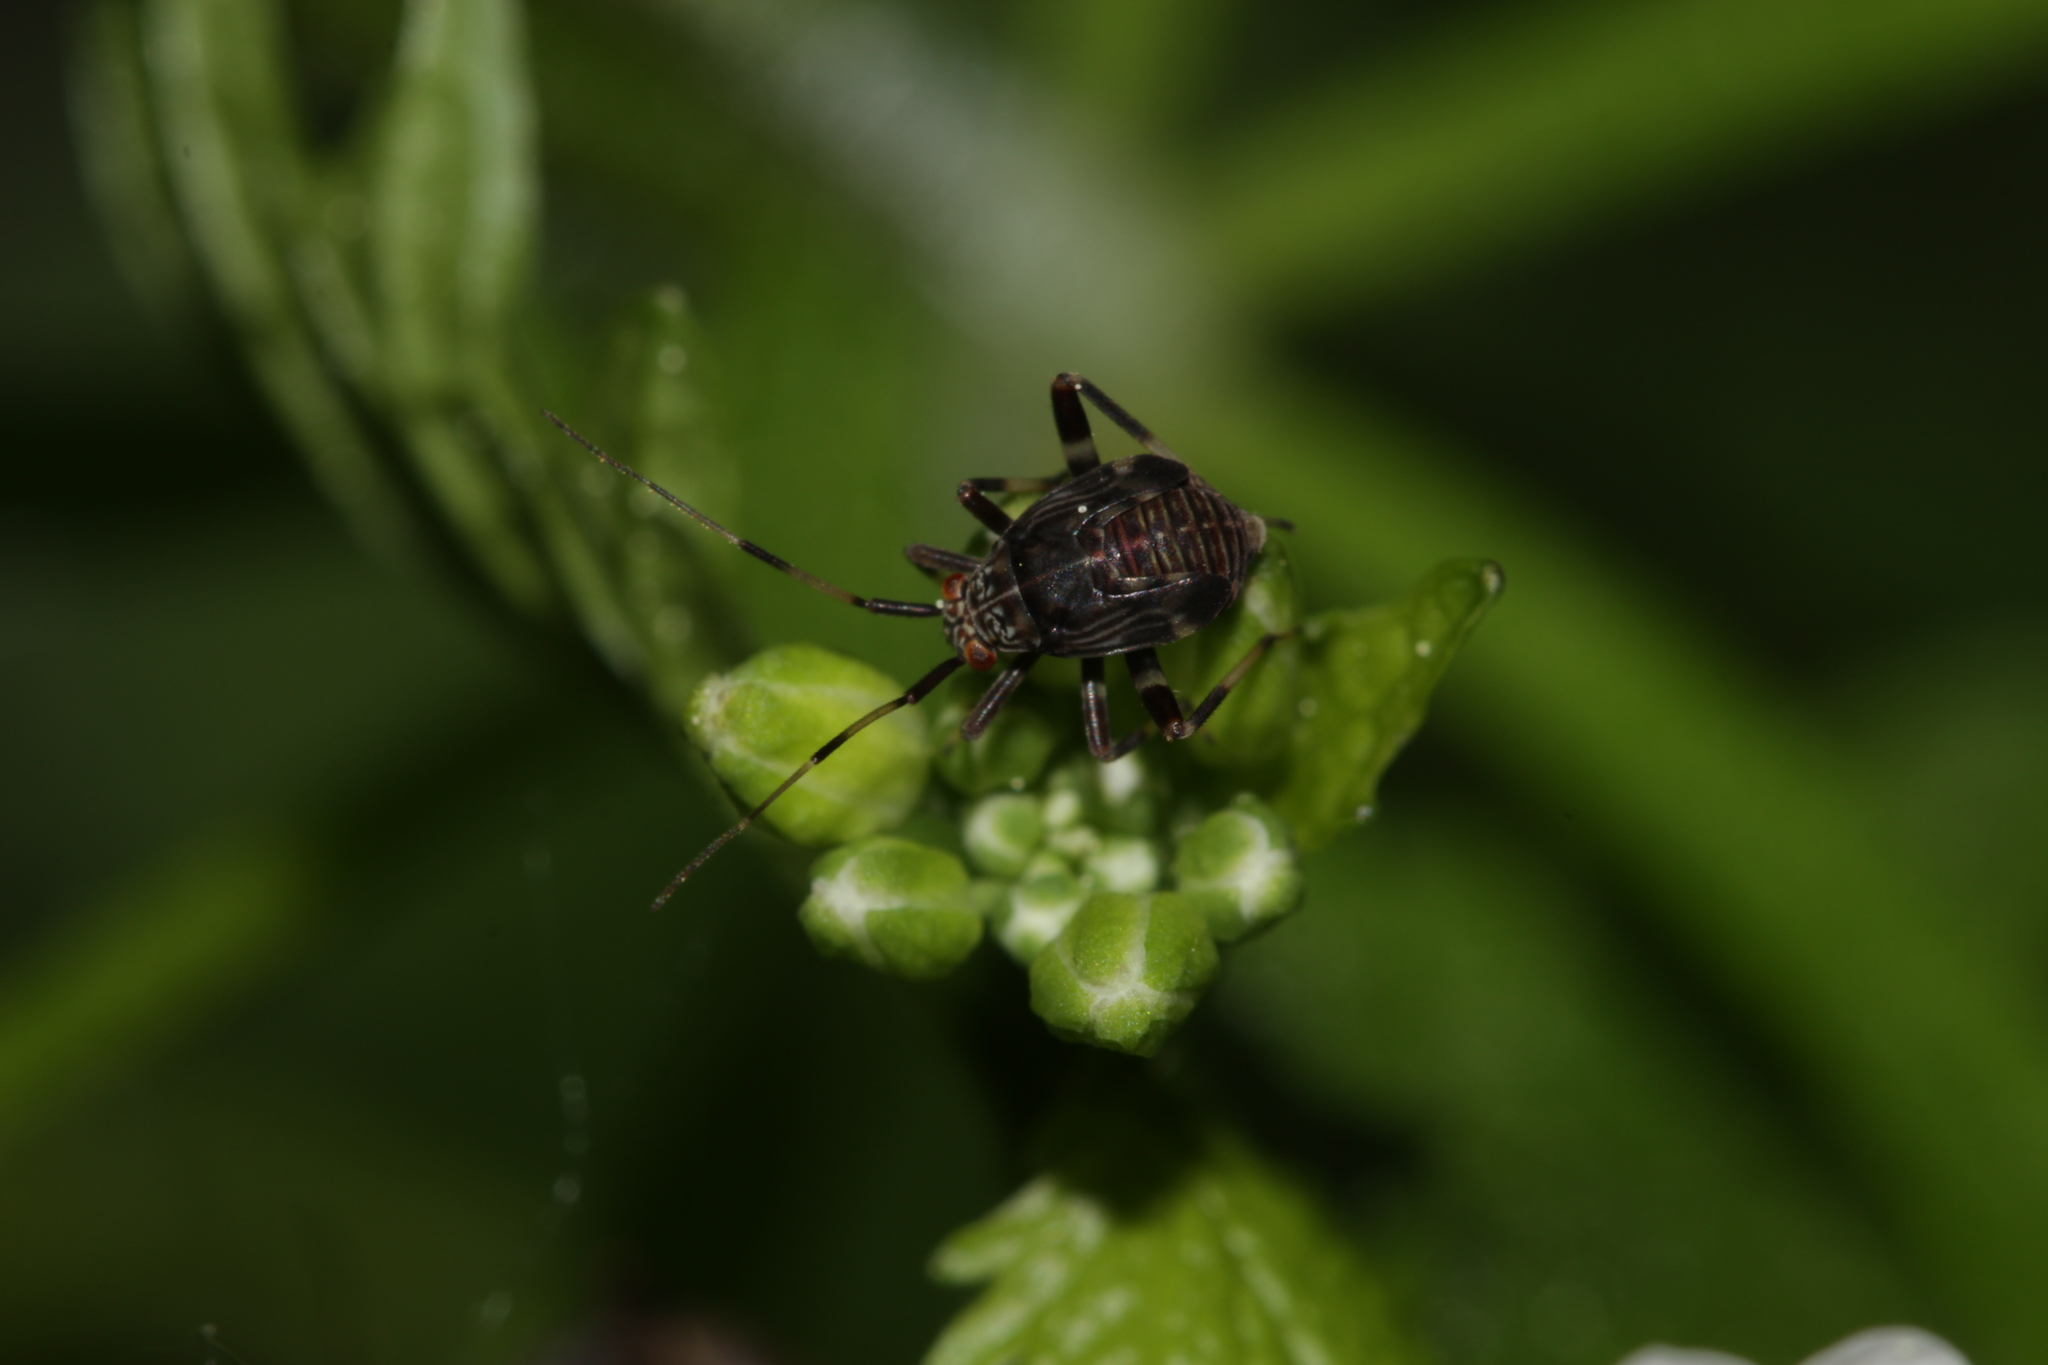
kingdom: Animalia
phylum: Arthropoda
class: Insecta
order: Hemiptera
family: Miridae
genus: Mermitelocerus
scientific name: Mermitelocerus schmidtii
